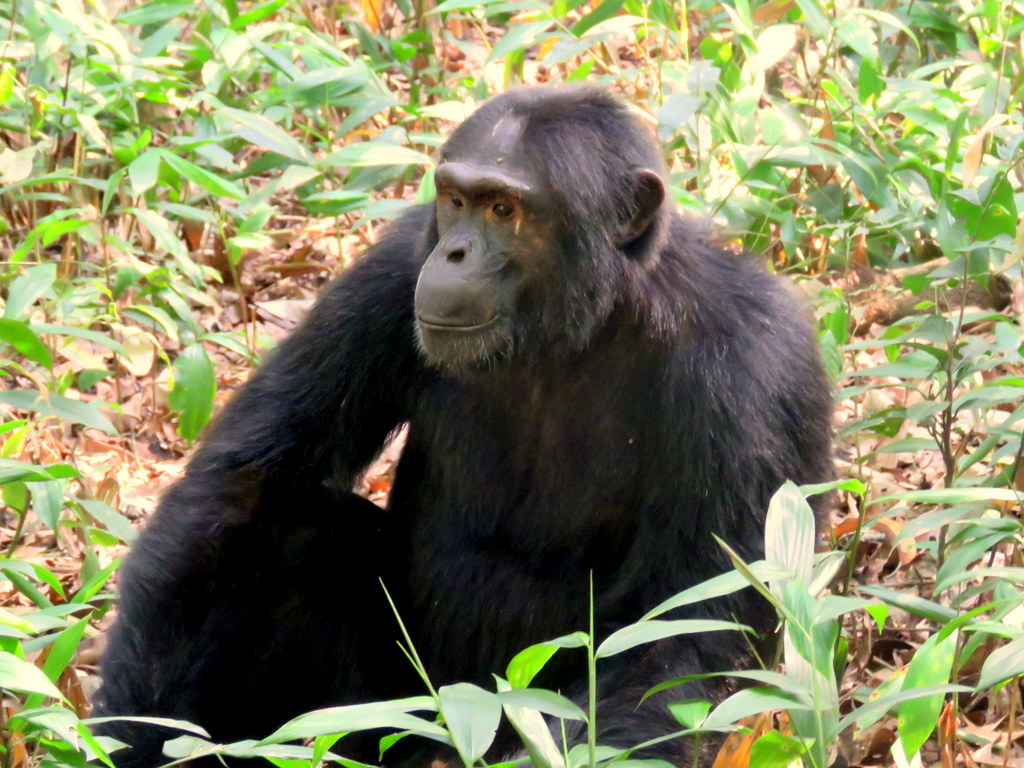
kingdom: Animalia
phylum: Chordata
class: Mammalia
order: Primates
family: Hominidae
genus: Pan
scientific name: Pan troglodytes
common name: Chimpanzee
